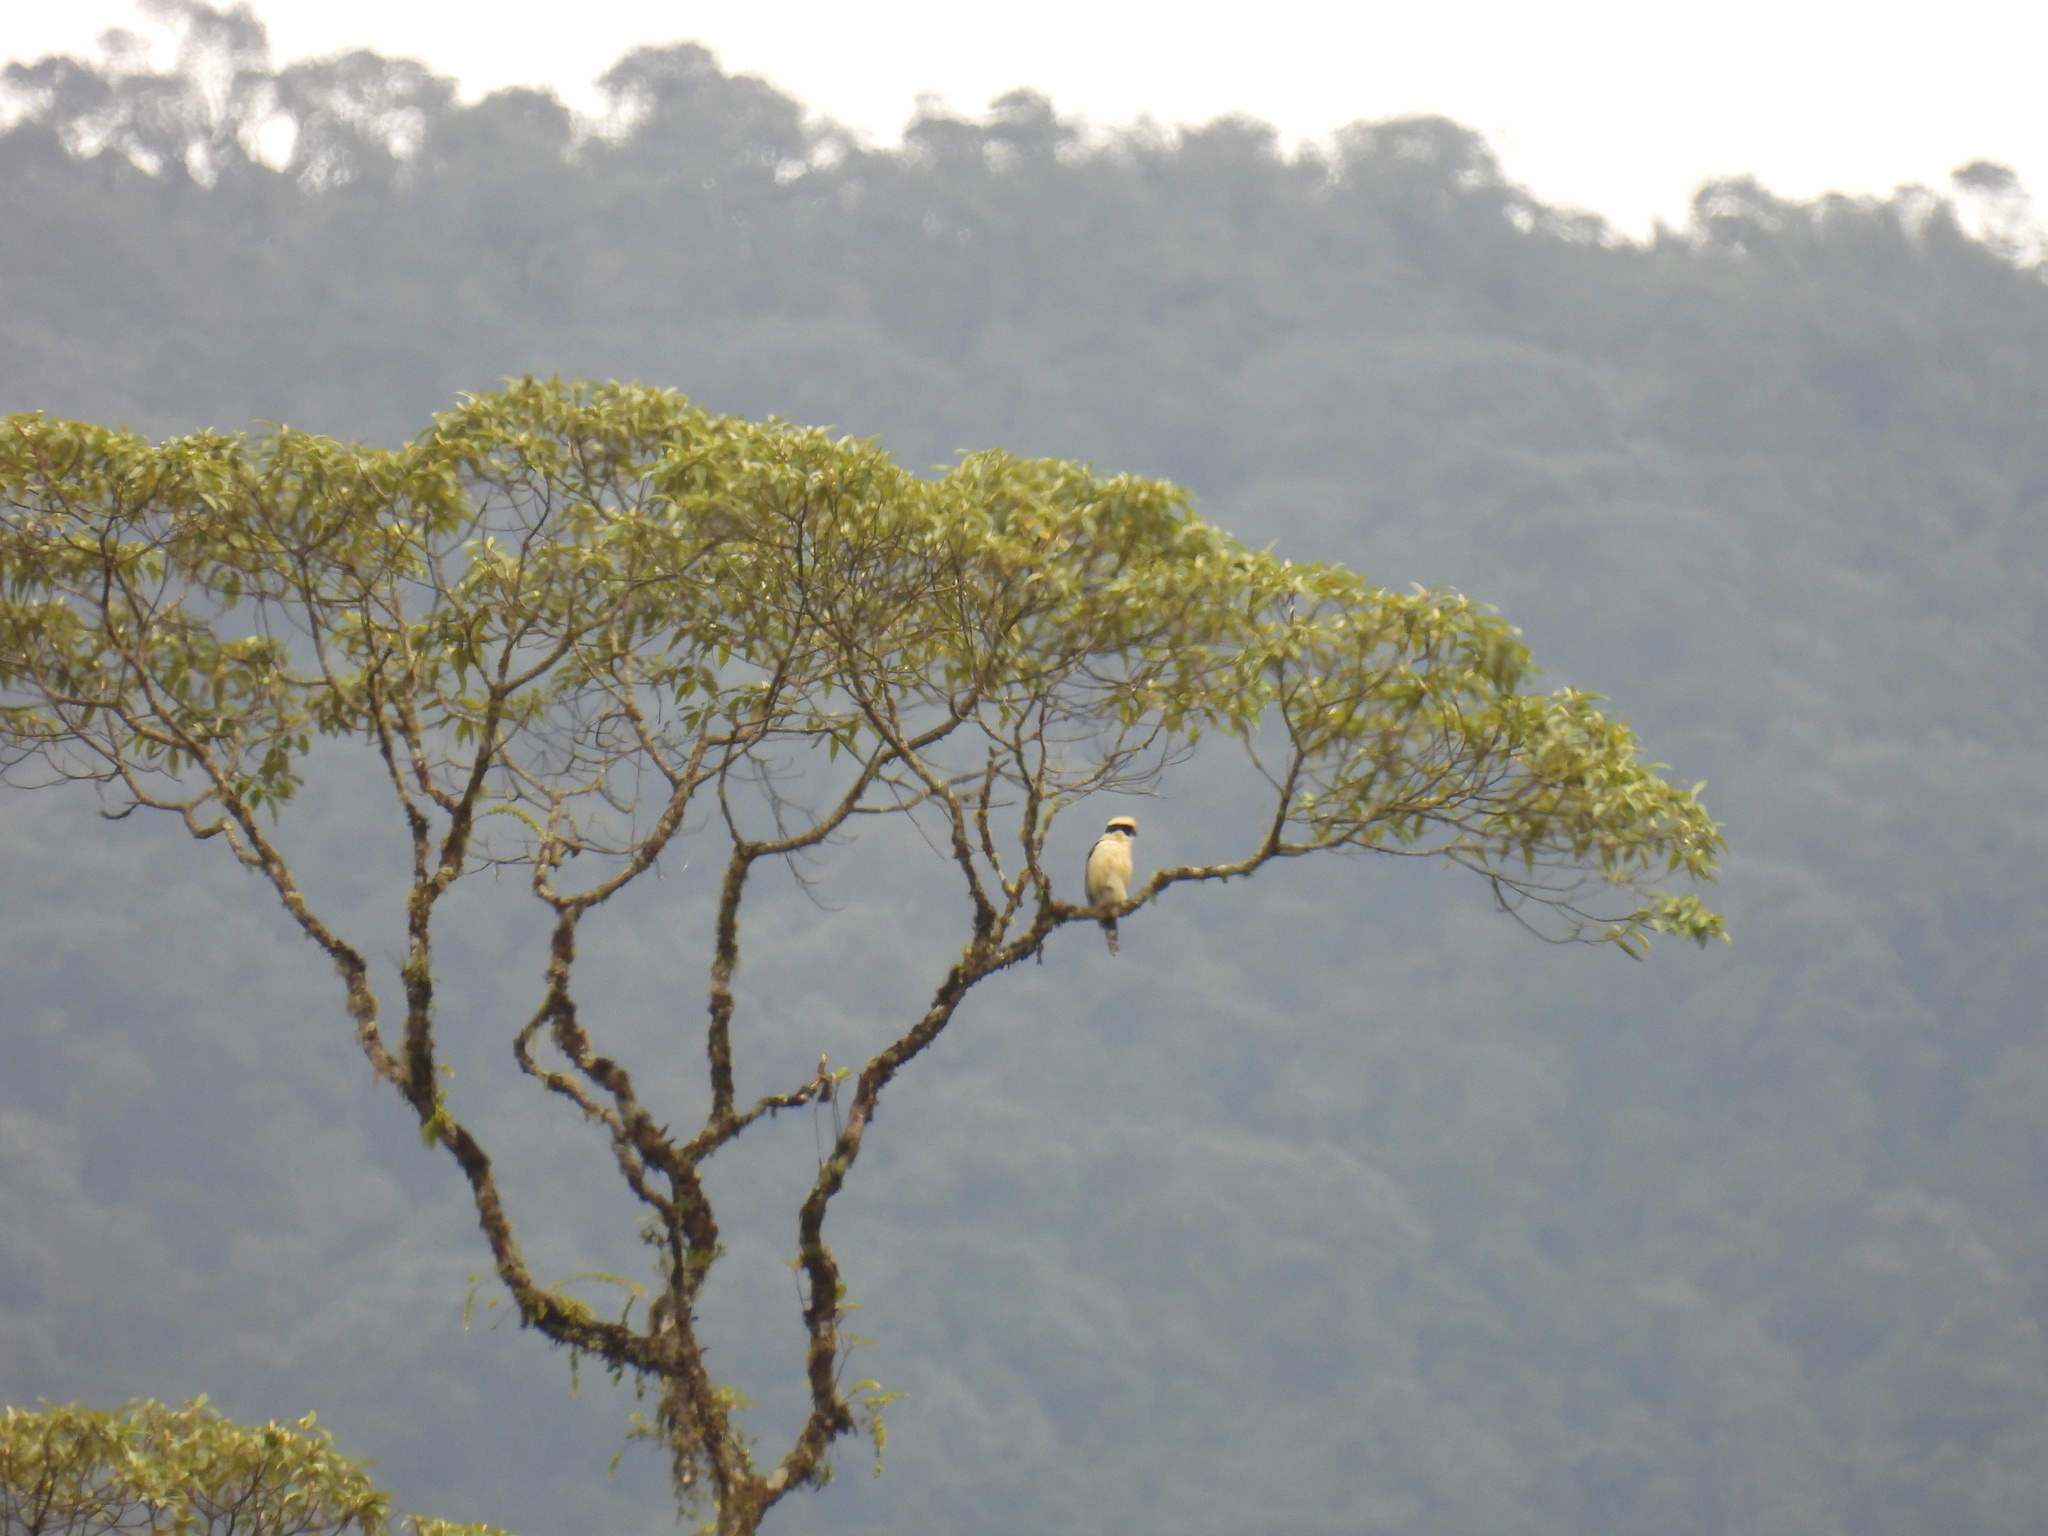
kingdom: Animalia
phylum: Chordata
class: Aves
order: Falconiformes
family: Falconidae
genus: Herpetotheres
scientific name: Herpetotheres cachinnans
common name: Laughing falcon
